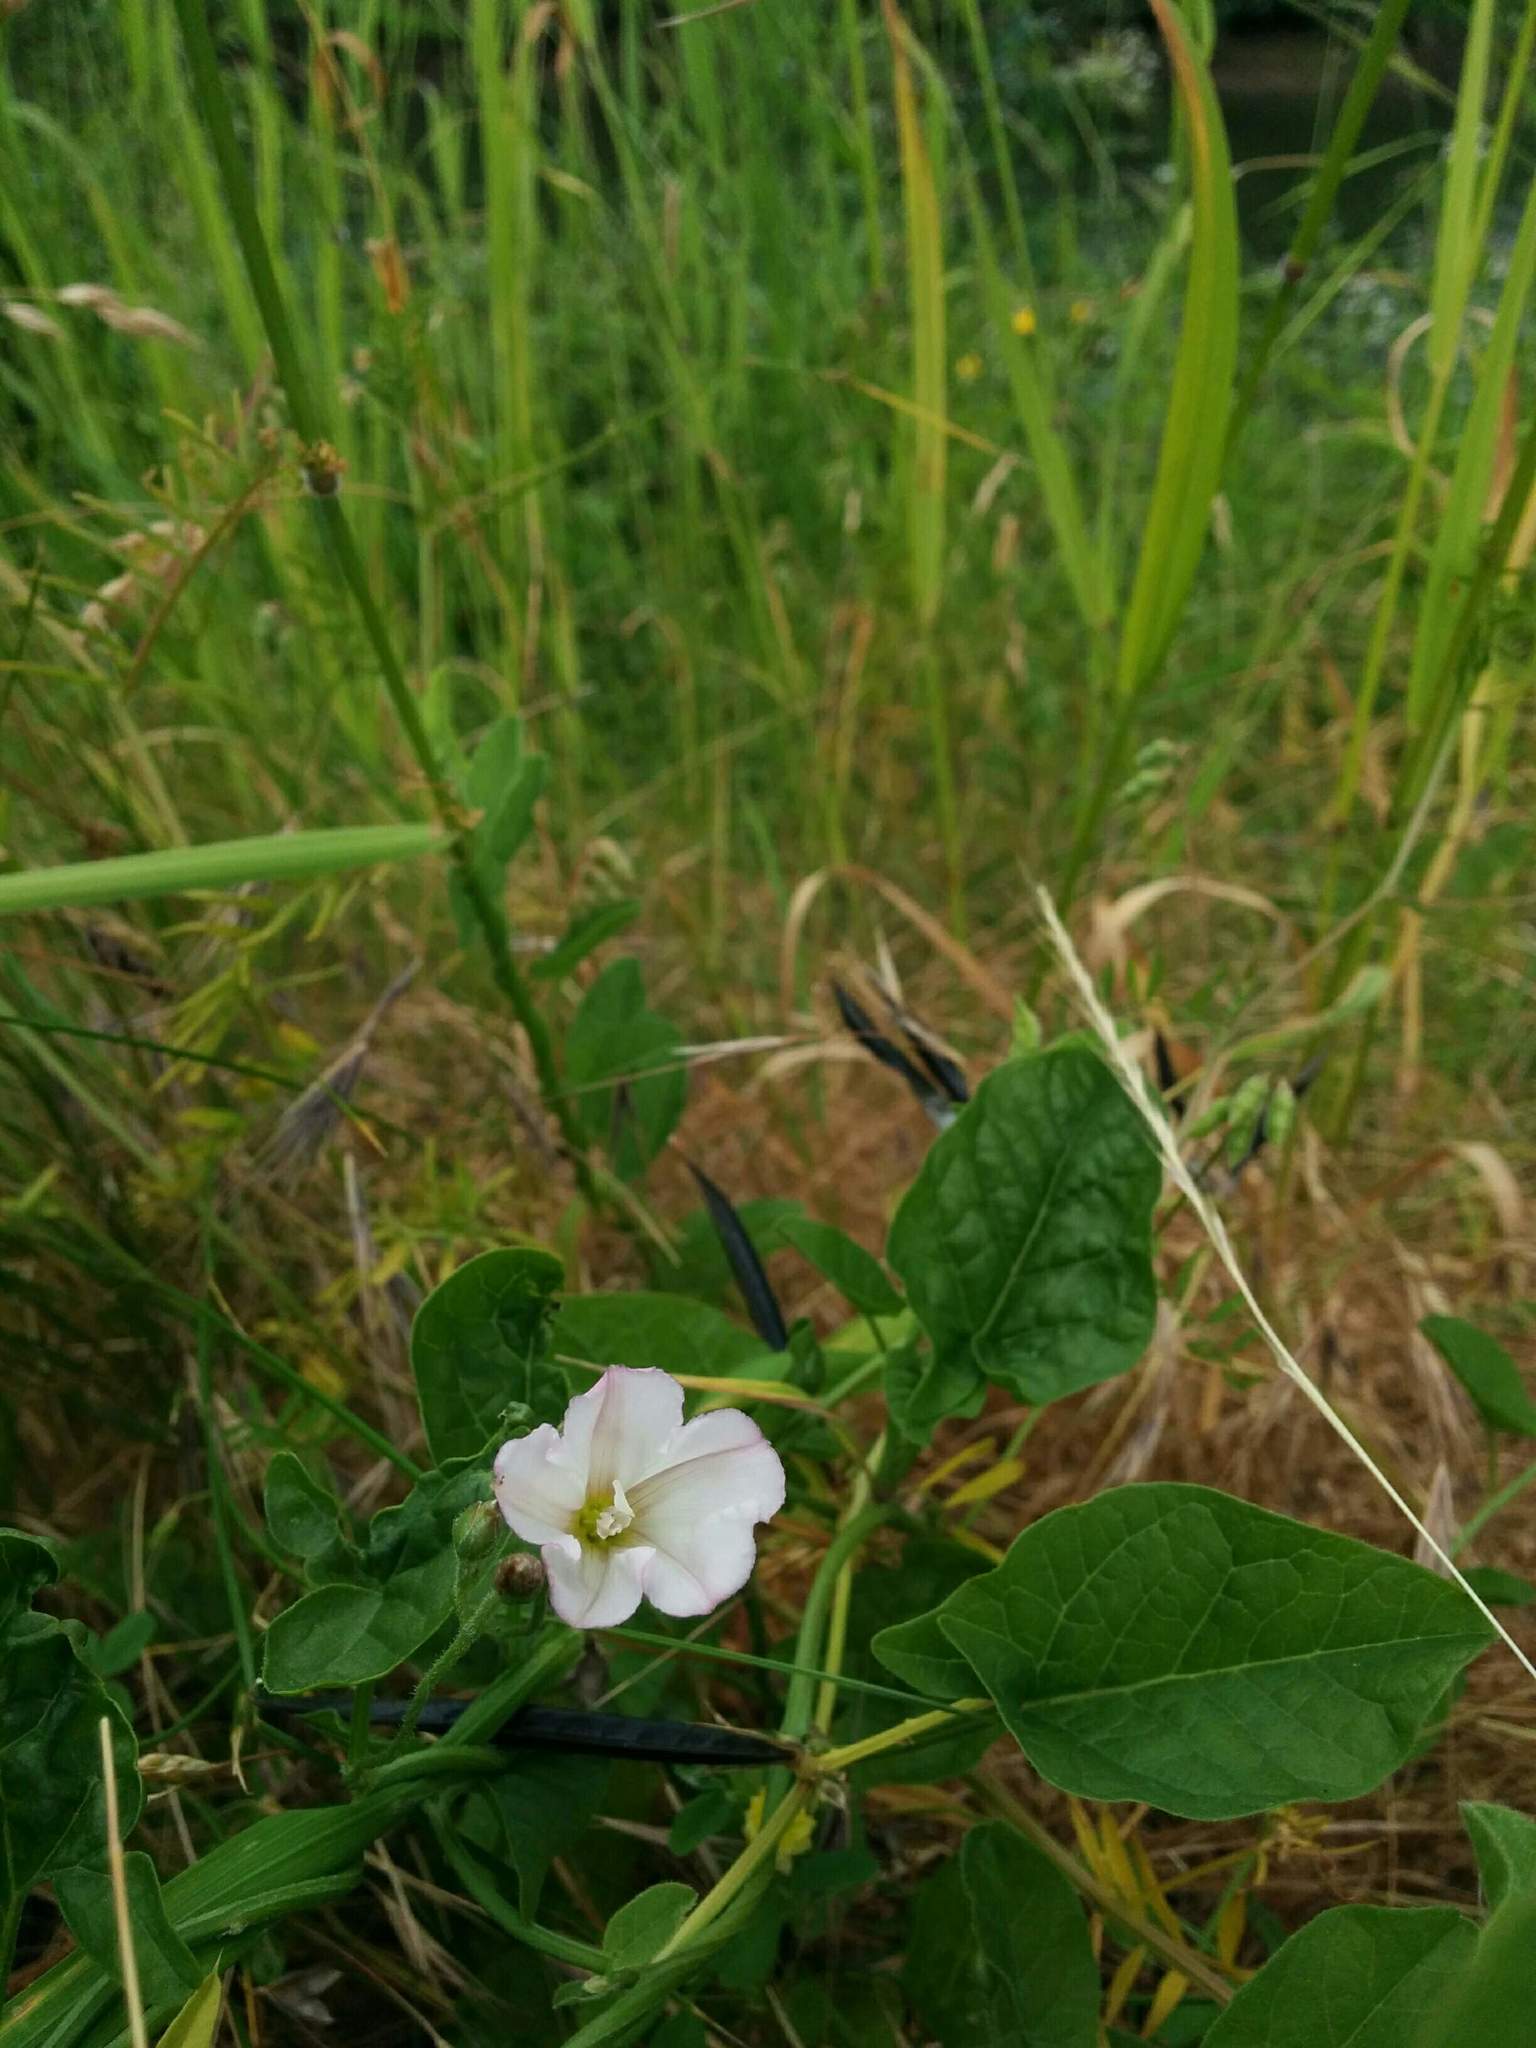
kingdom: Plantae
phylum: Tracheophyta
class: Magnoliopsida
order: Solanales
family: Convolvulaceae
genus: Convolvulus
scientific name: Convolvulus arvensis
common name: Field bindweed
